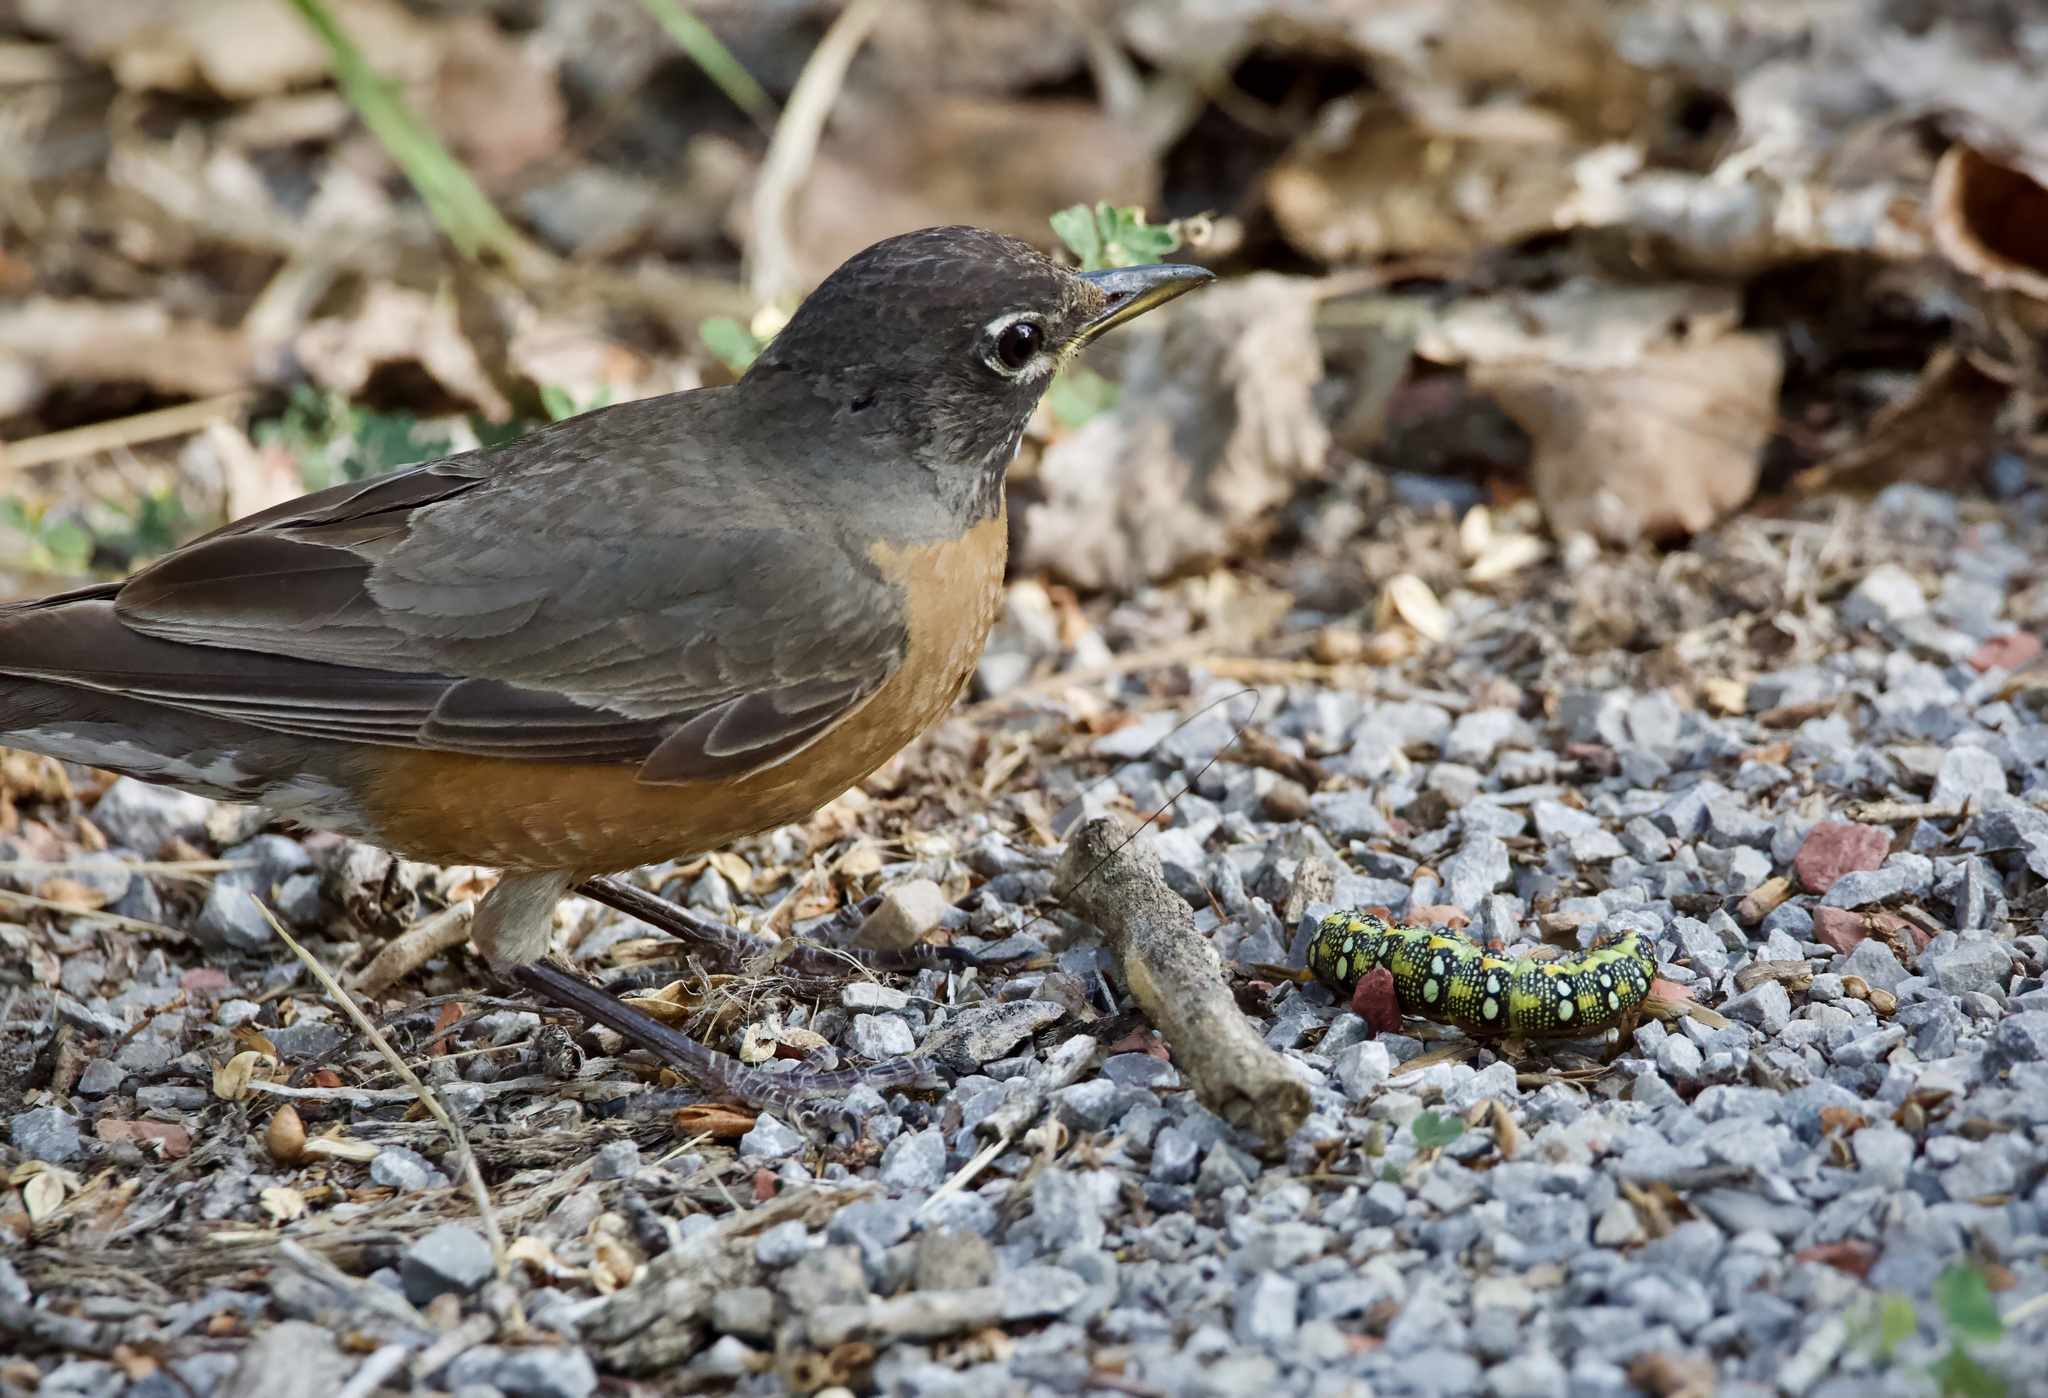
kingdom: Animalia
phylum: Arthropoda
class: Insecta
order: Lepidoptera
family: Sphingidae
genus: Hyles
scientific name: Hyles euphorbiae
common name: Spurge hawk-moth
